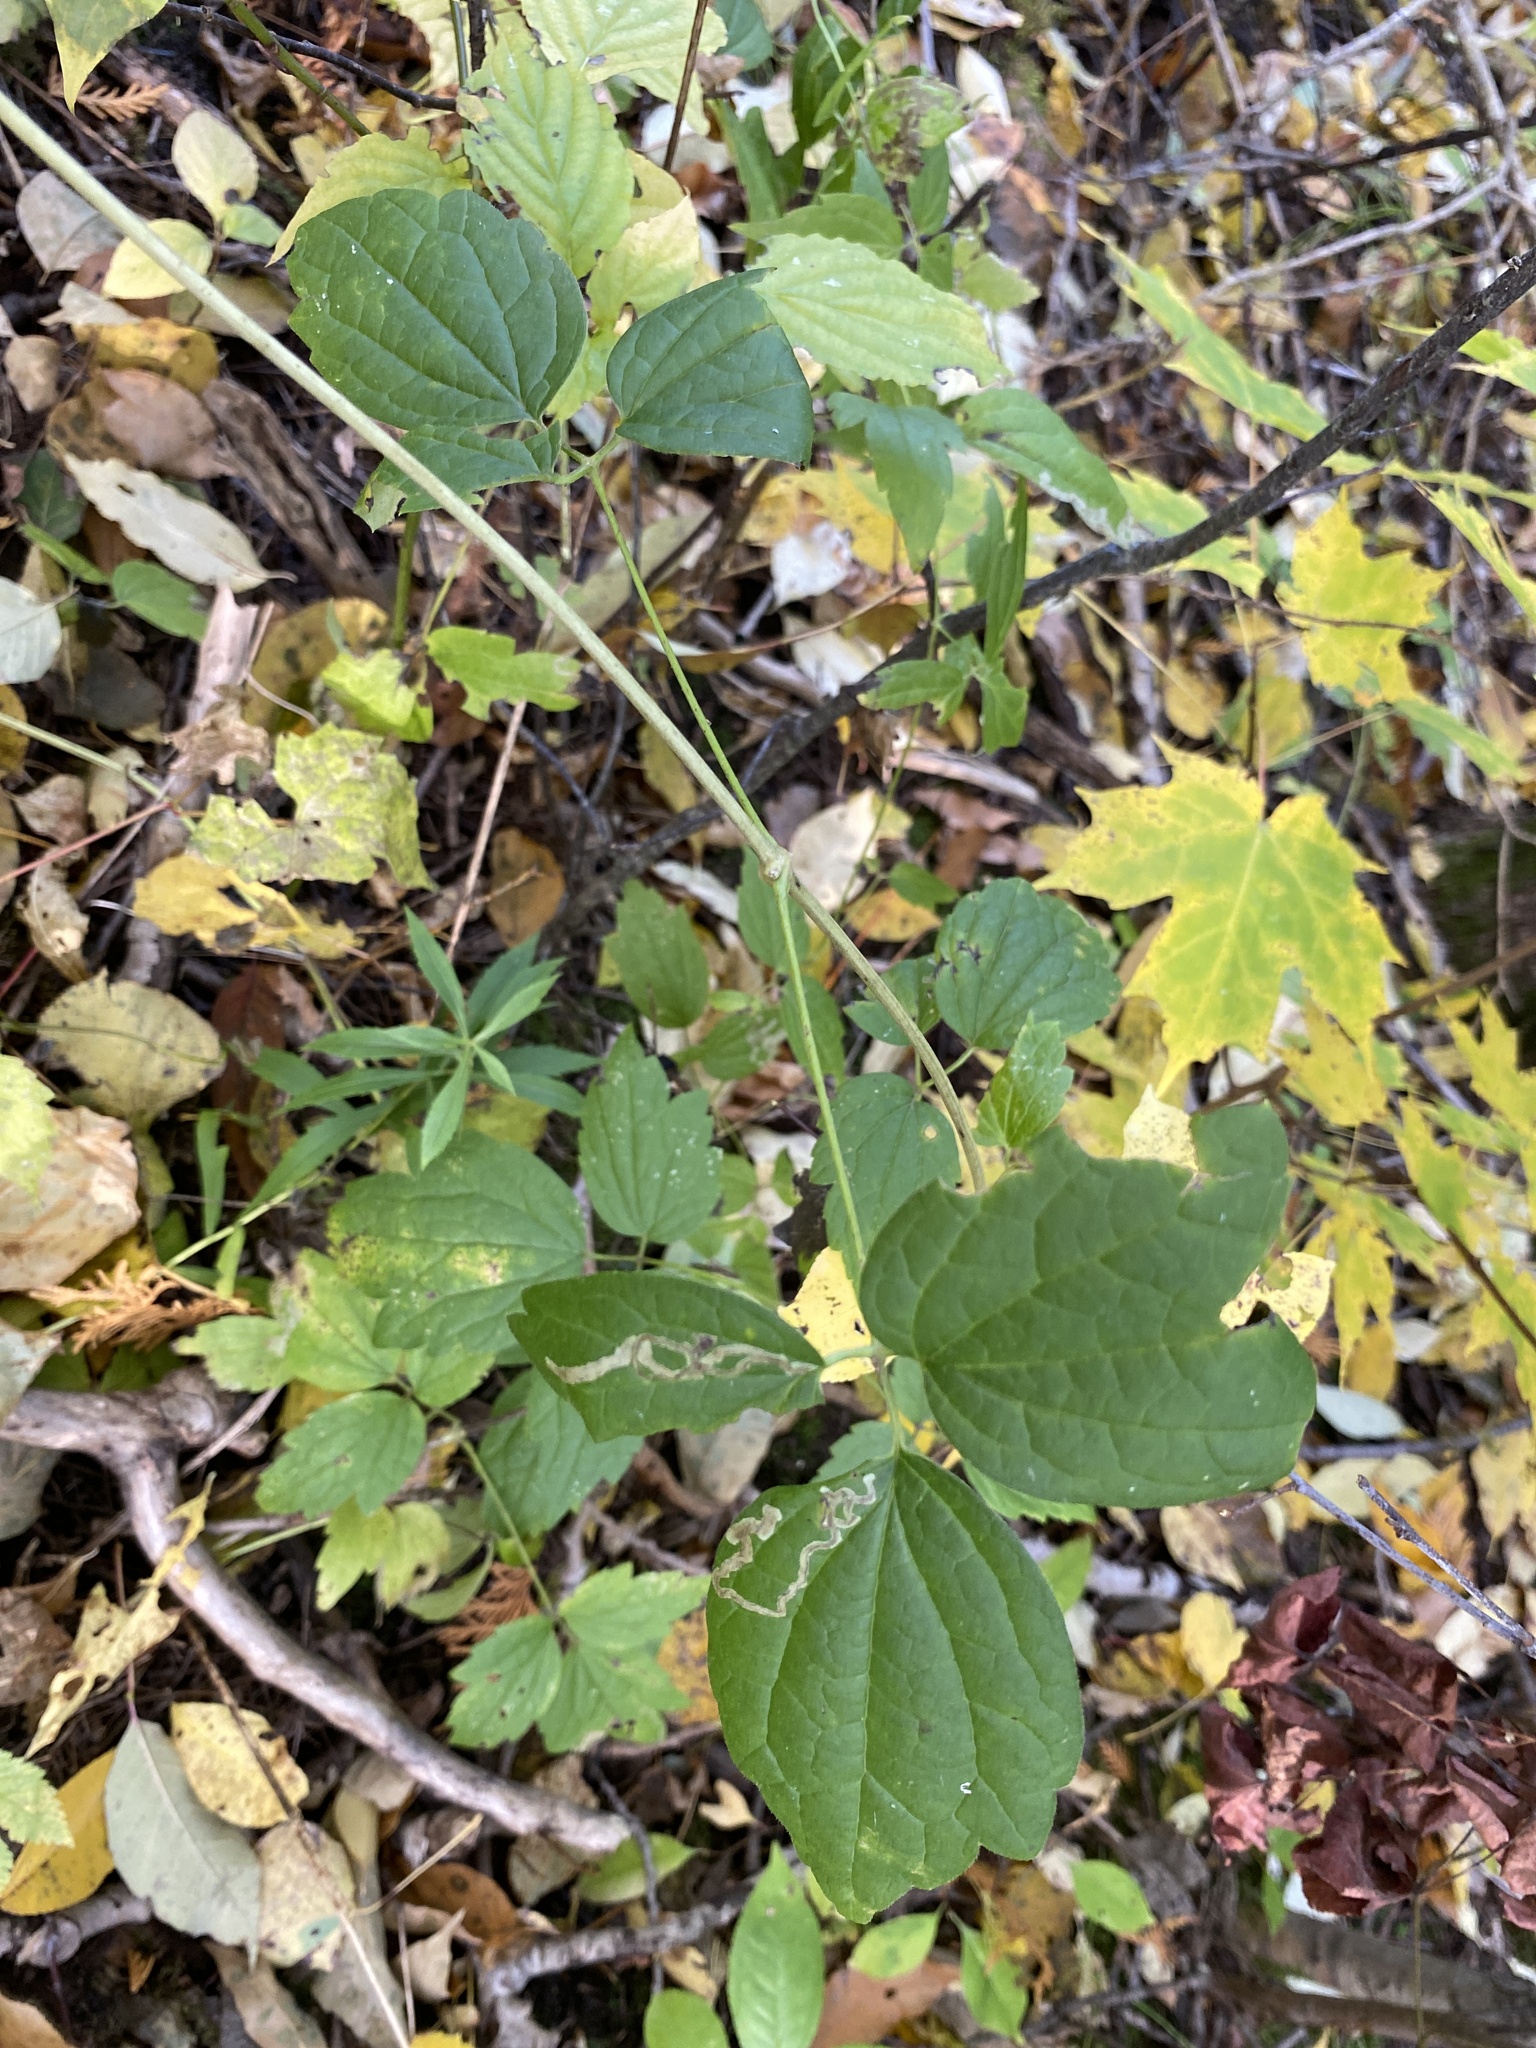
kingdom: Plantae
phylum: Tracheophyta
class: Magnoliopsida
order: Ranunculales
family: Ranunculaceae
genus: Clematis
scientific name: Clematis virginiana
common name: Virgin's-bower
